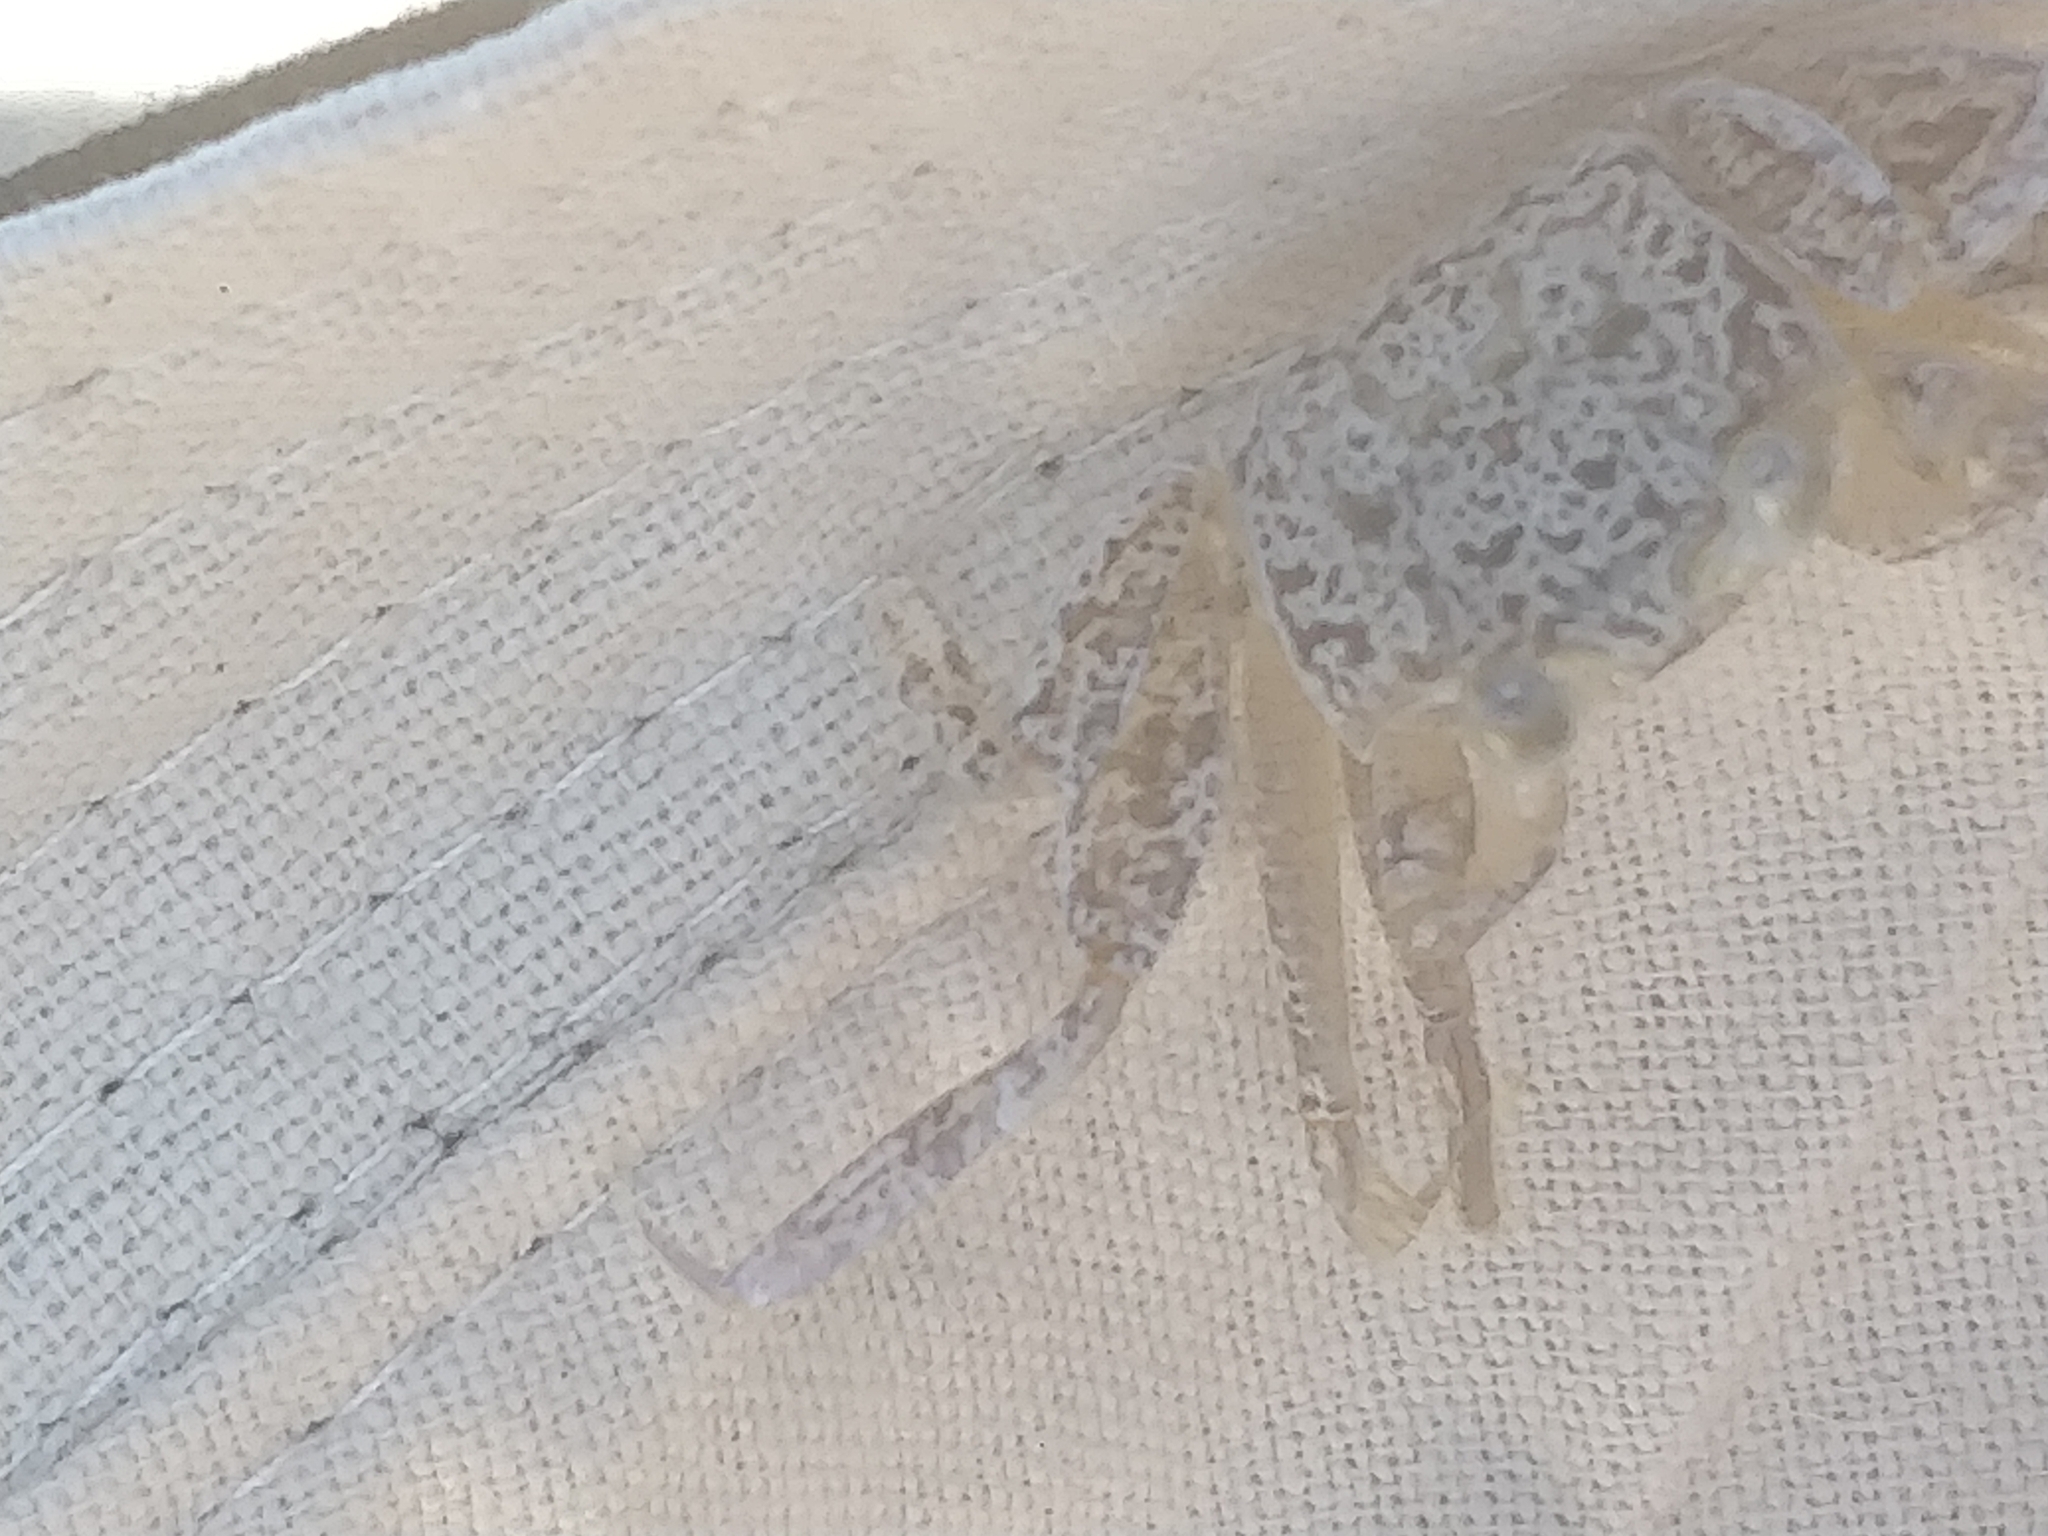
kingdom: Animalia
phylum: Arthropoda
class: Malacostraca
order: Decapoda
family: Ocypodidae
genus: Ocypode
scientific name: Ocypode quadrata
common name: Ghost crab
